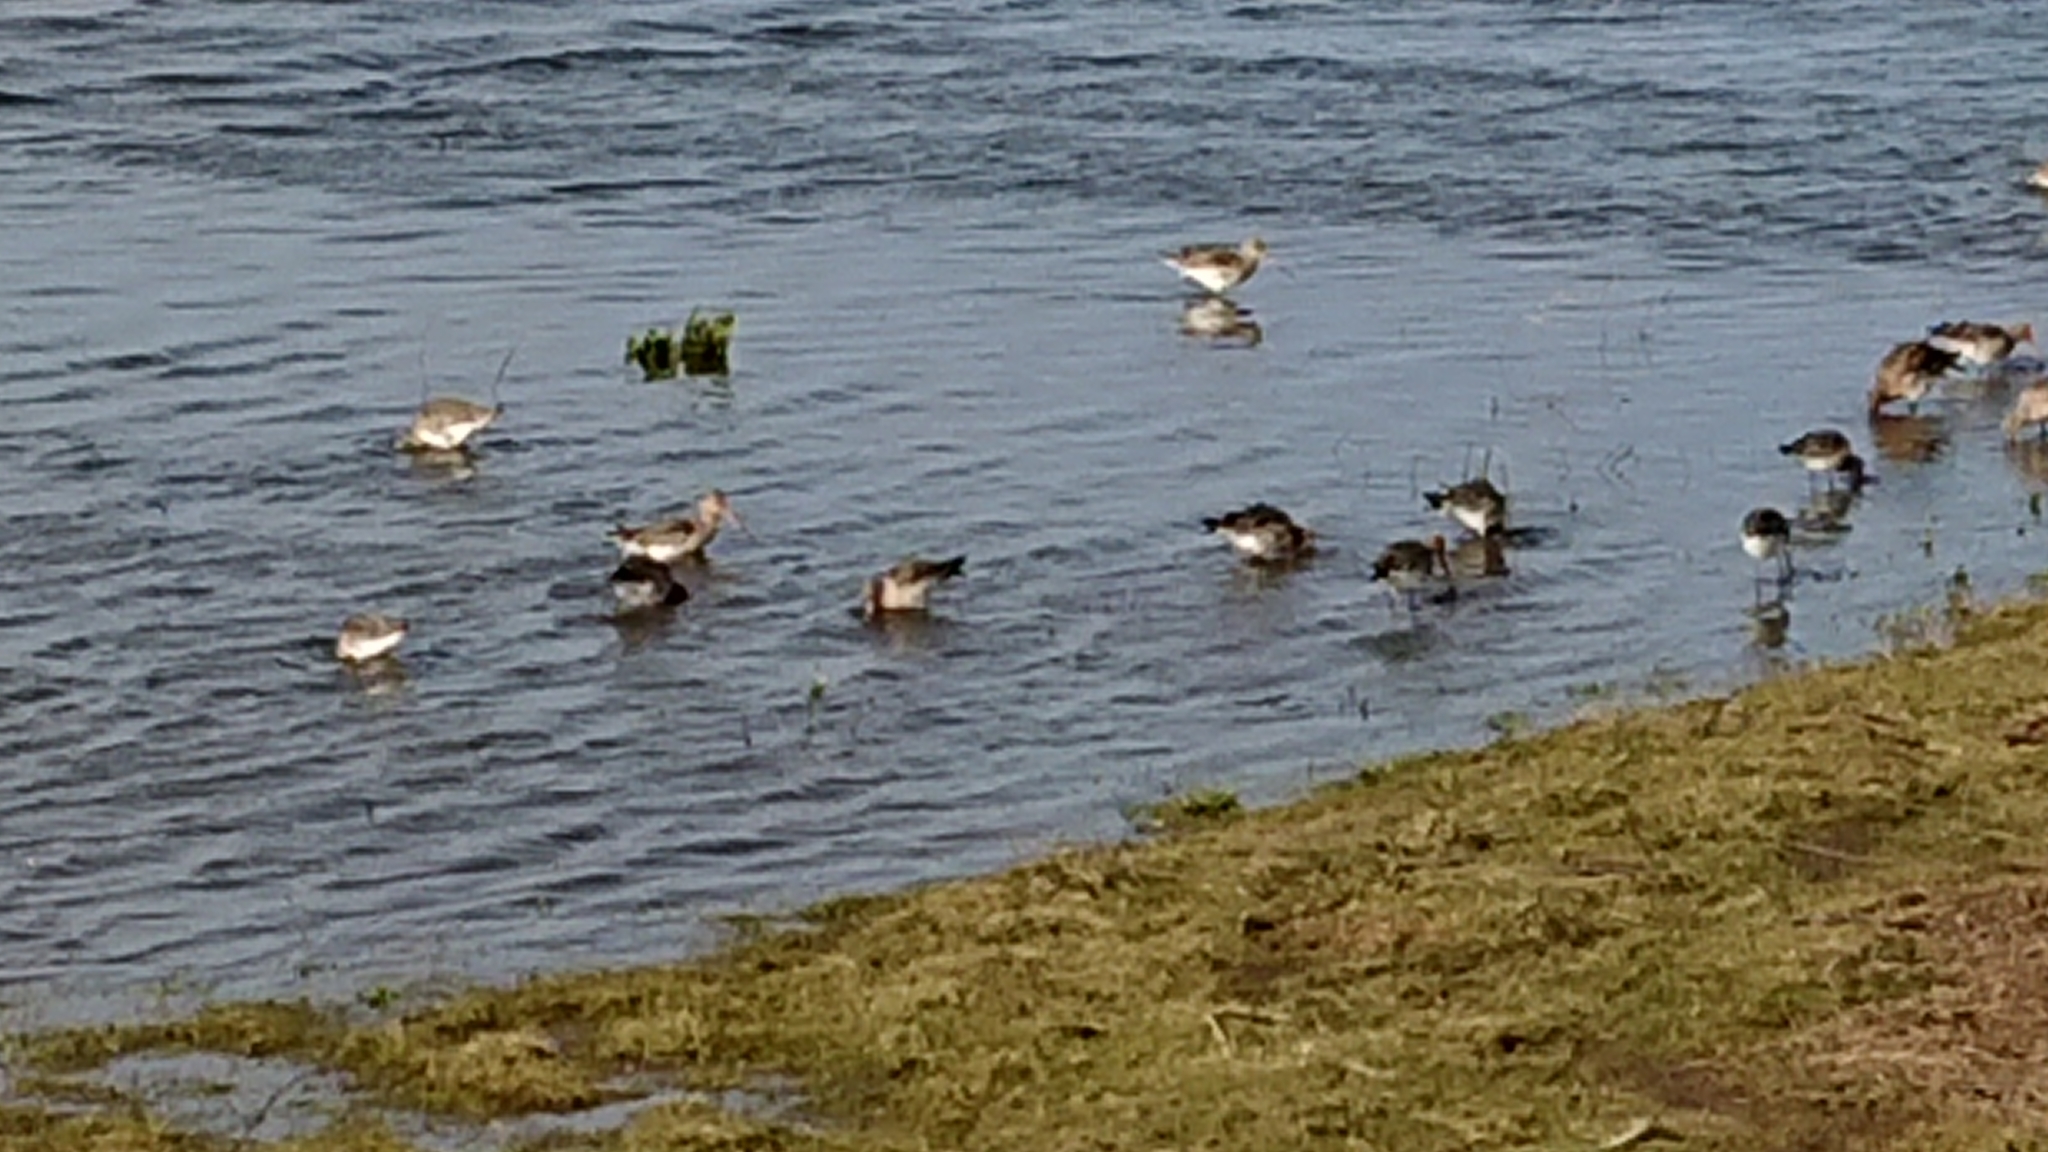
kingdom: Animalia
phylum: Chordata
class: Aves
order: Charadriiformes
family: Scolopacidae
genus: Limosa
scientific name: Limosa limosa
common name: Black-tailed godwit
